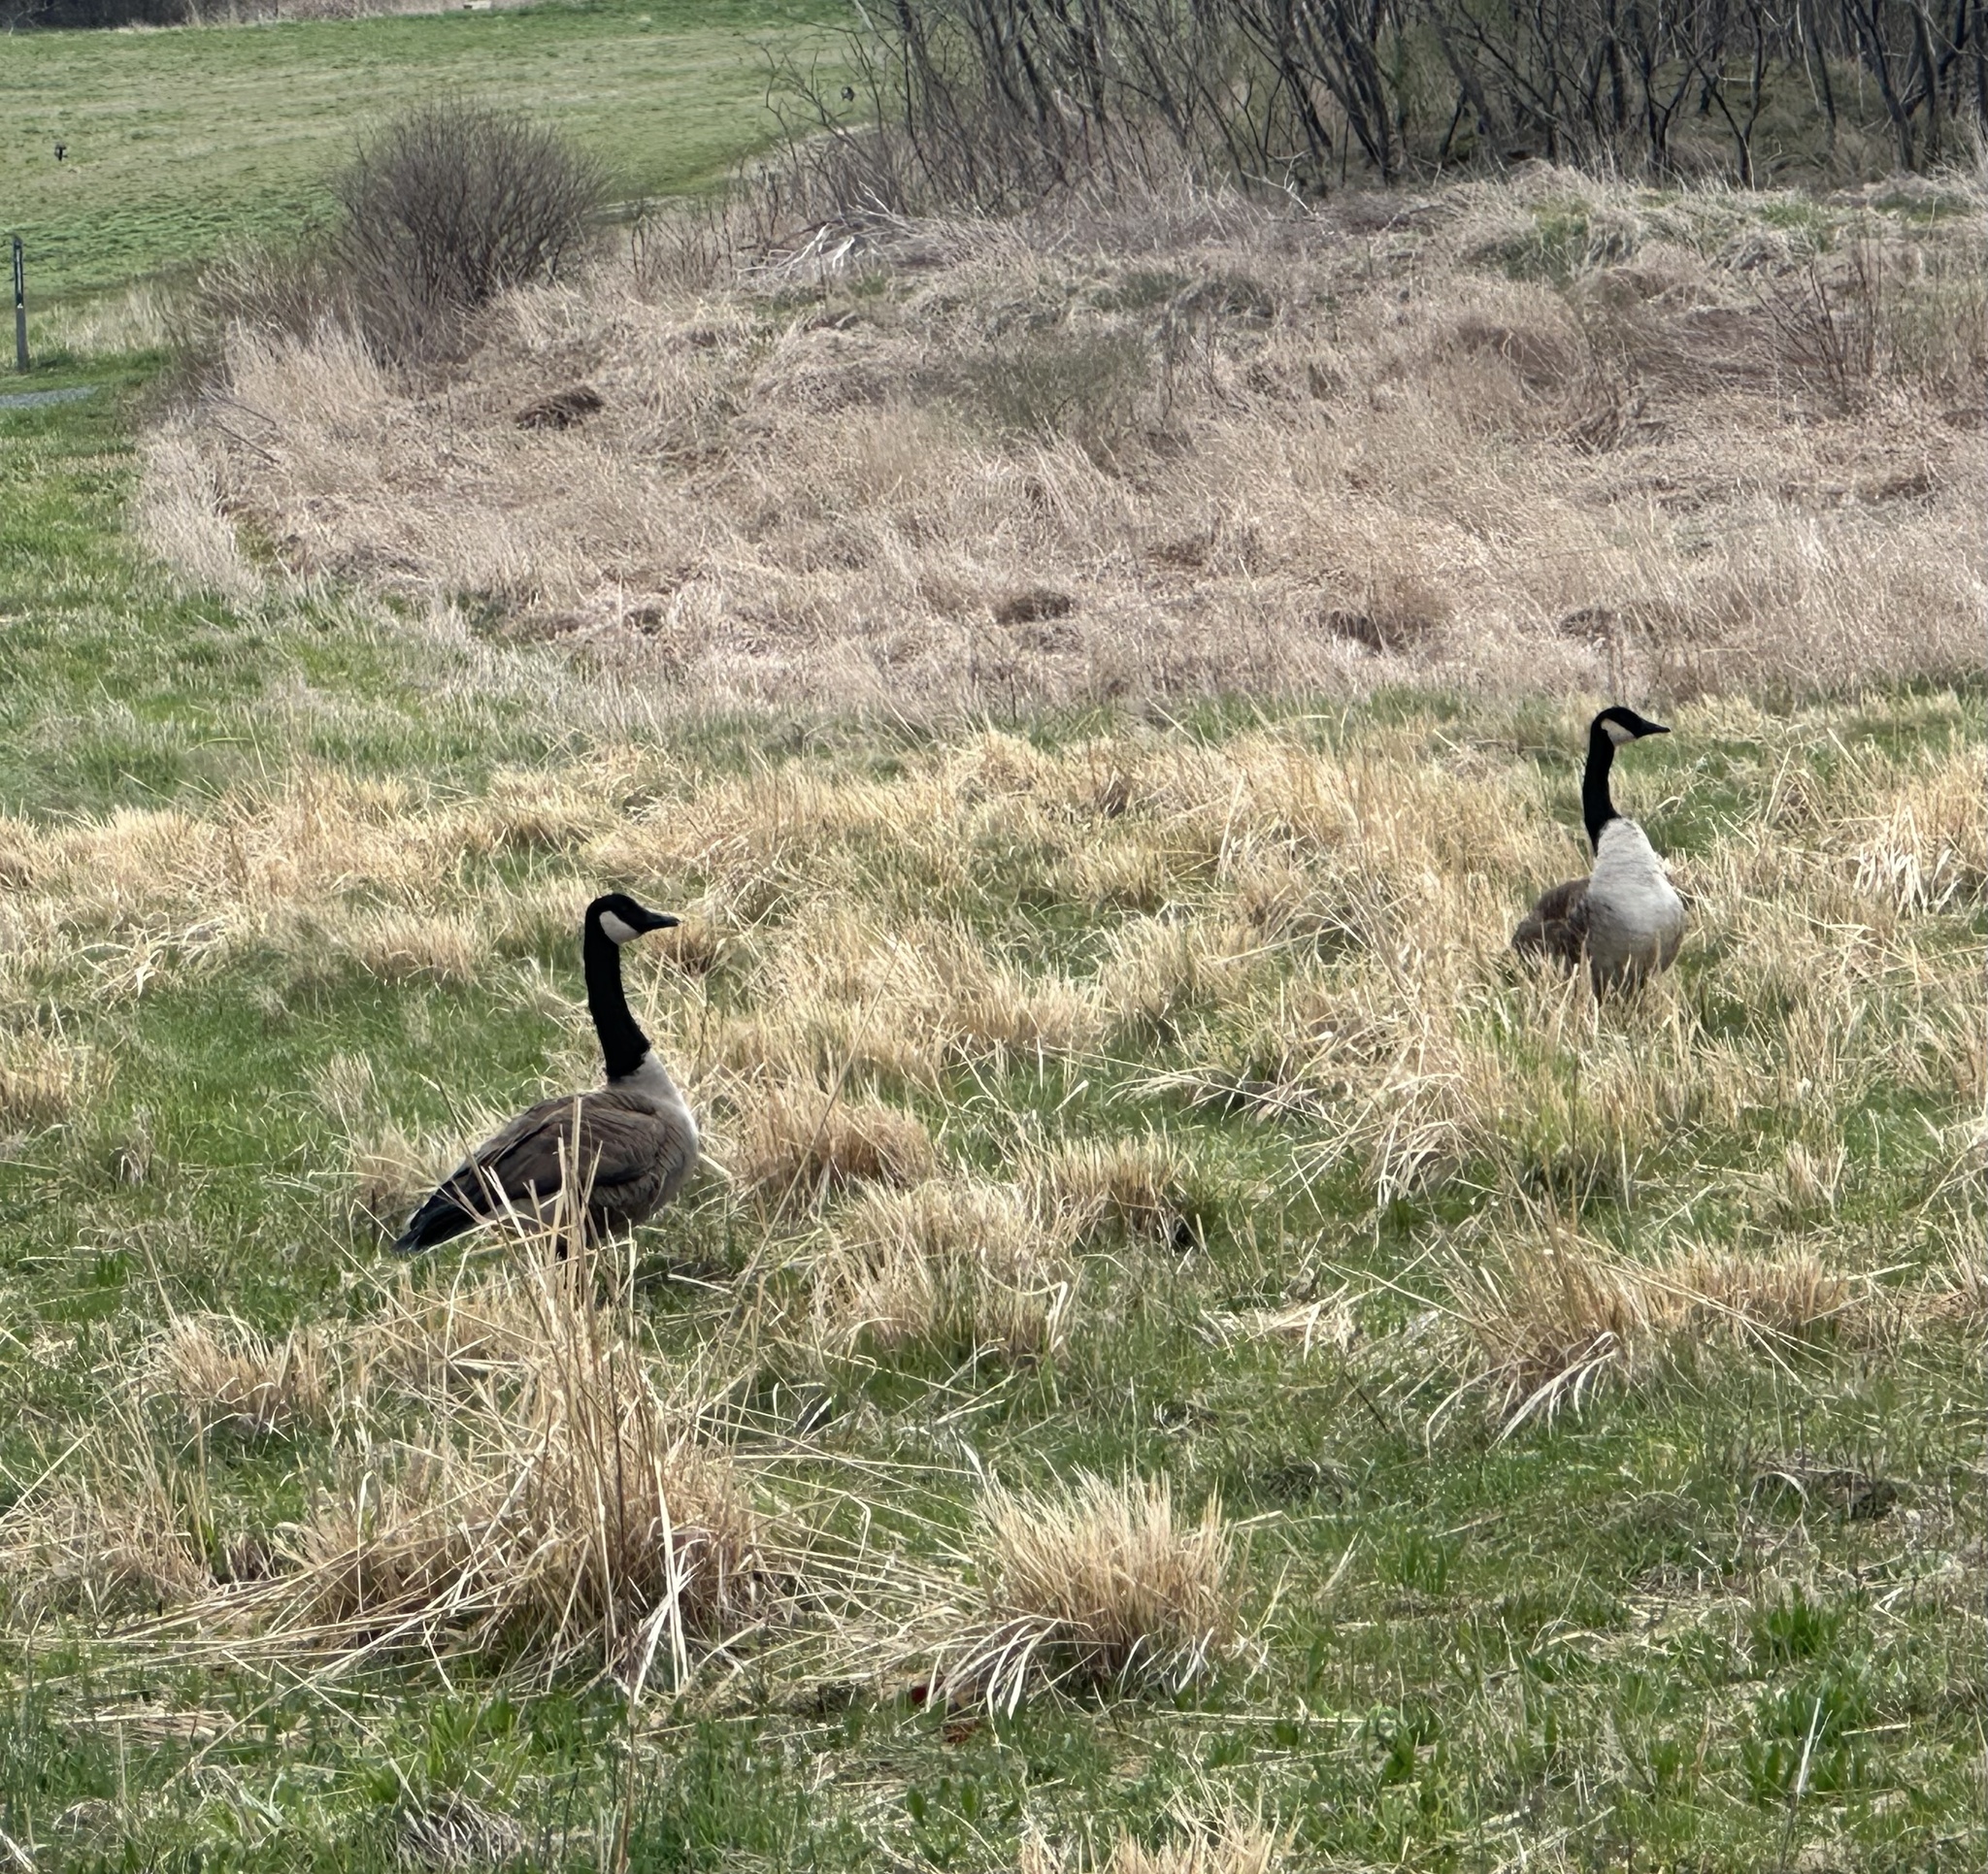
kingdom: Animalia
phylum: Chordata
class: Aves
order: Anseriformes
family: Anatidae
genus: Branta
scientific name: Branta canadensis
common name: Canada goose
